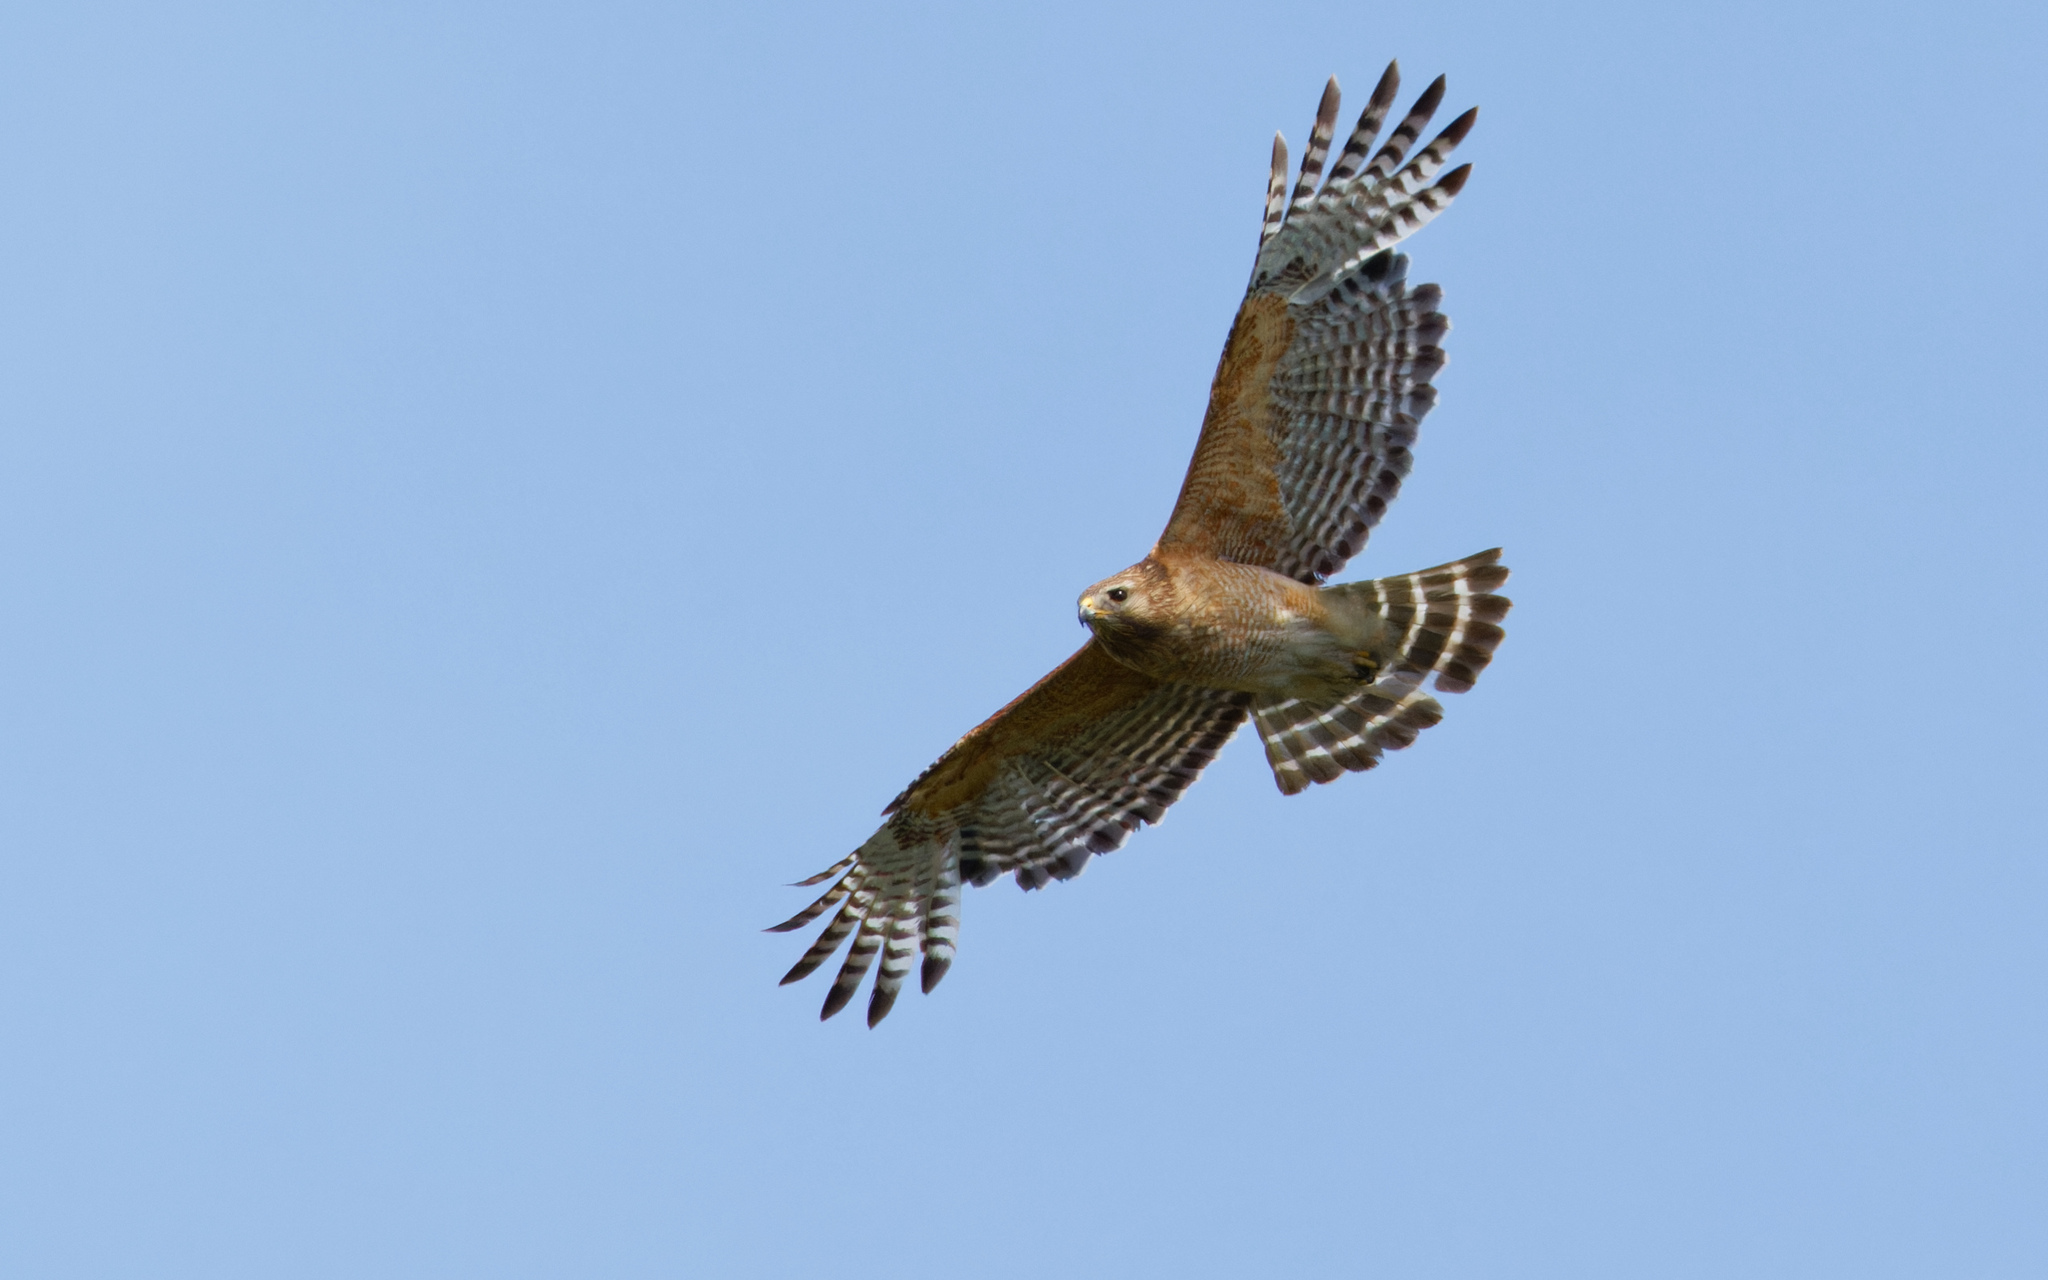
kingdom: Animalia
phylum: Chordata
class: Aves
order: Accipitriformes
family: Accipitridae
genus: Buteo
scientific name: Buteo lineatus
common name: Red-shouldered hawk
